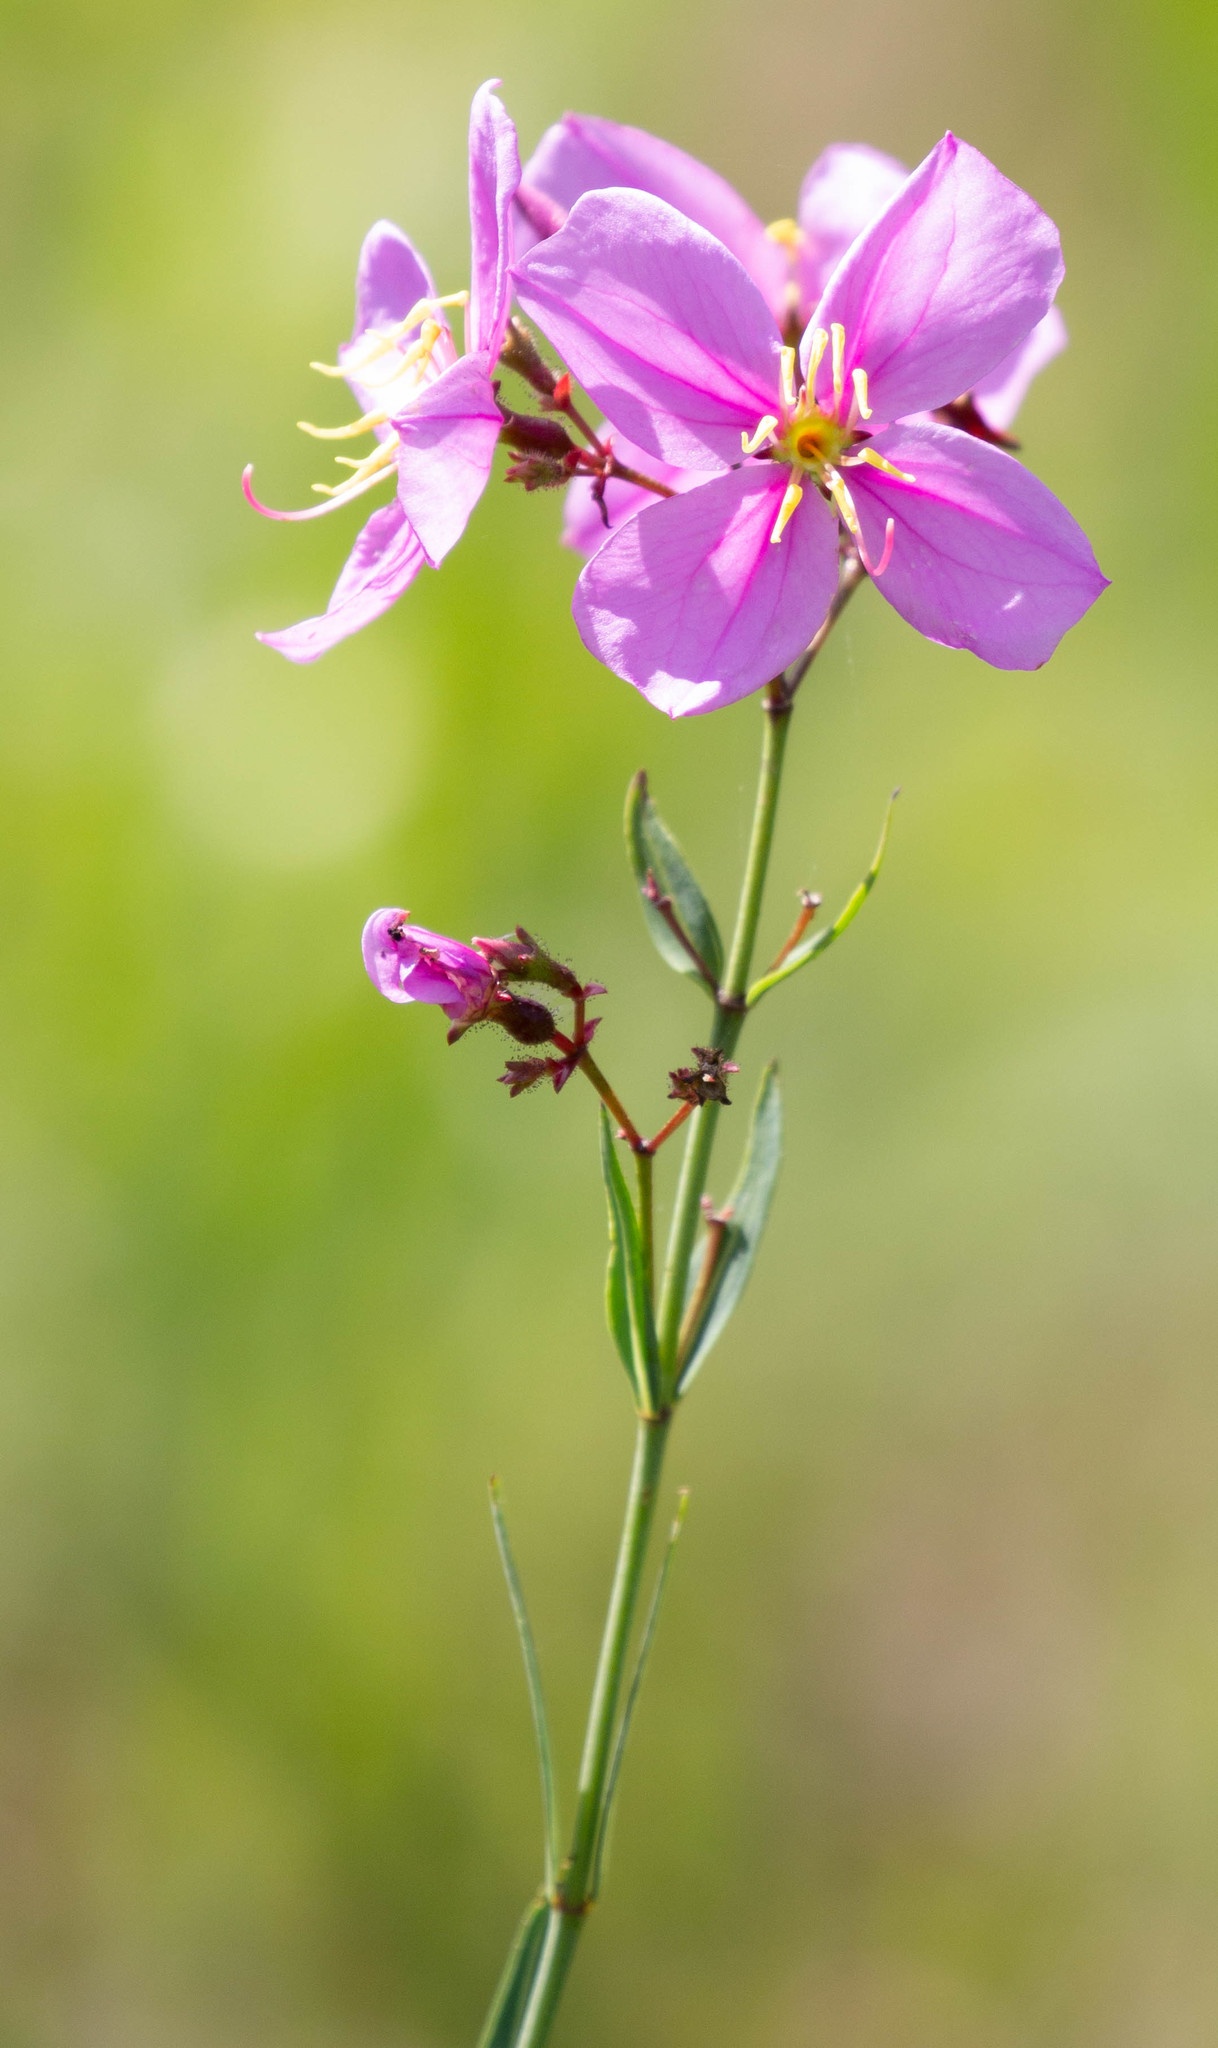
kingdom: Plantae
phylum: Tracheophyta
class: Magnoliopsida
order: Myrtales
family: Melastomataceae
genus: Rhexia
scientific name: Rhexia alifanus
